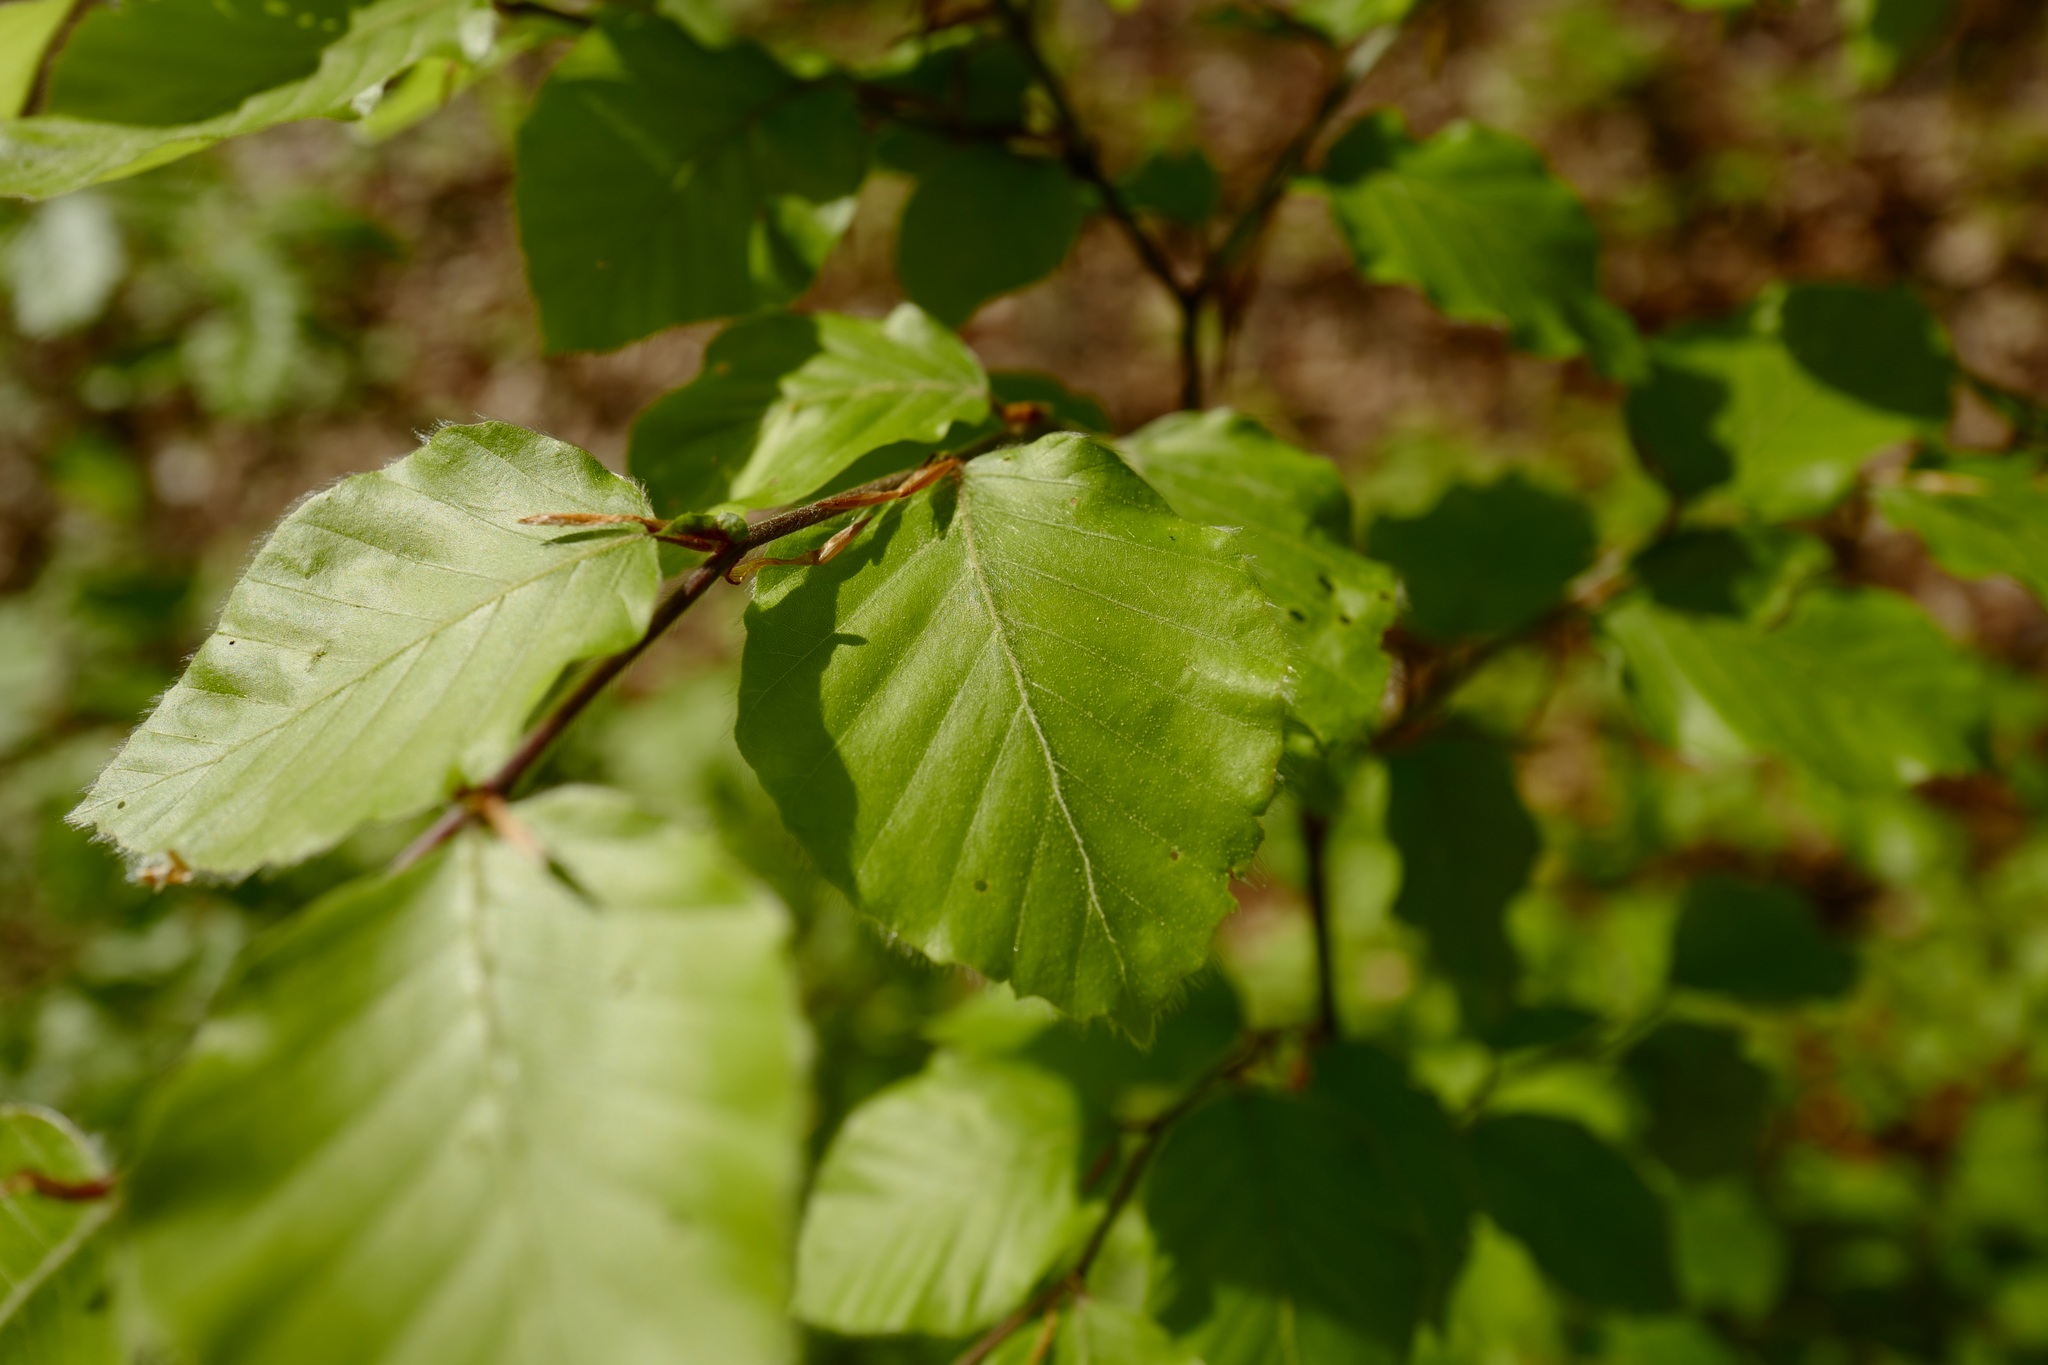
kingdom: Plantae
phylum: Tracheophyta
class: Magnoliopsida
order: Fagales
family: Fagaceae
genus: Fagus
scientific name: Fagus sylvatica
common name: Beech
